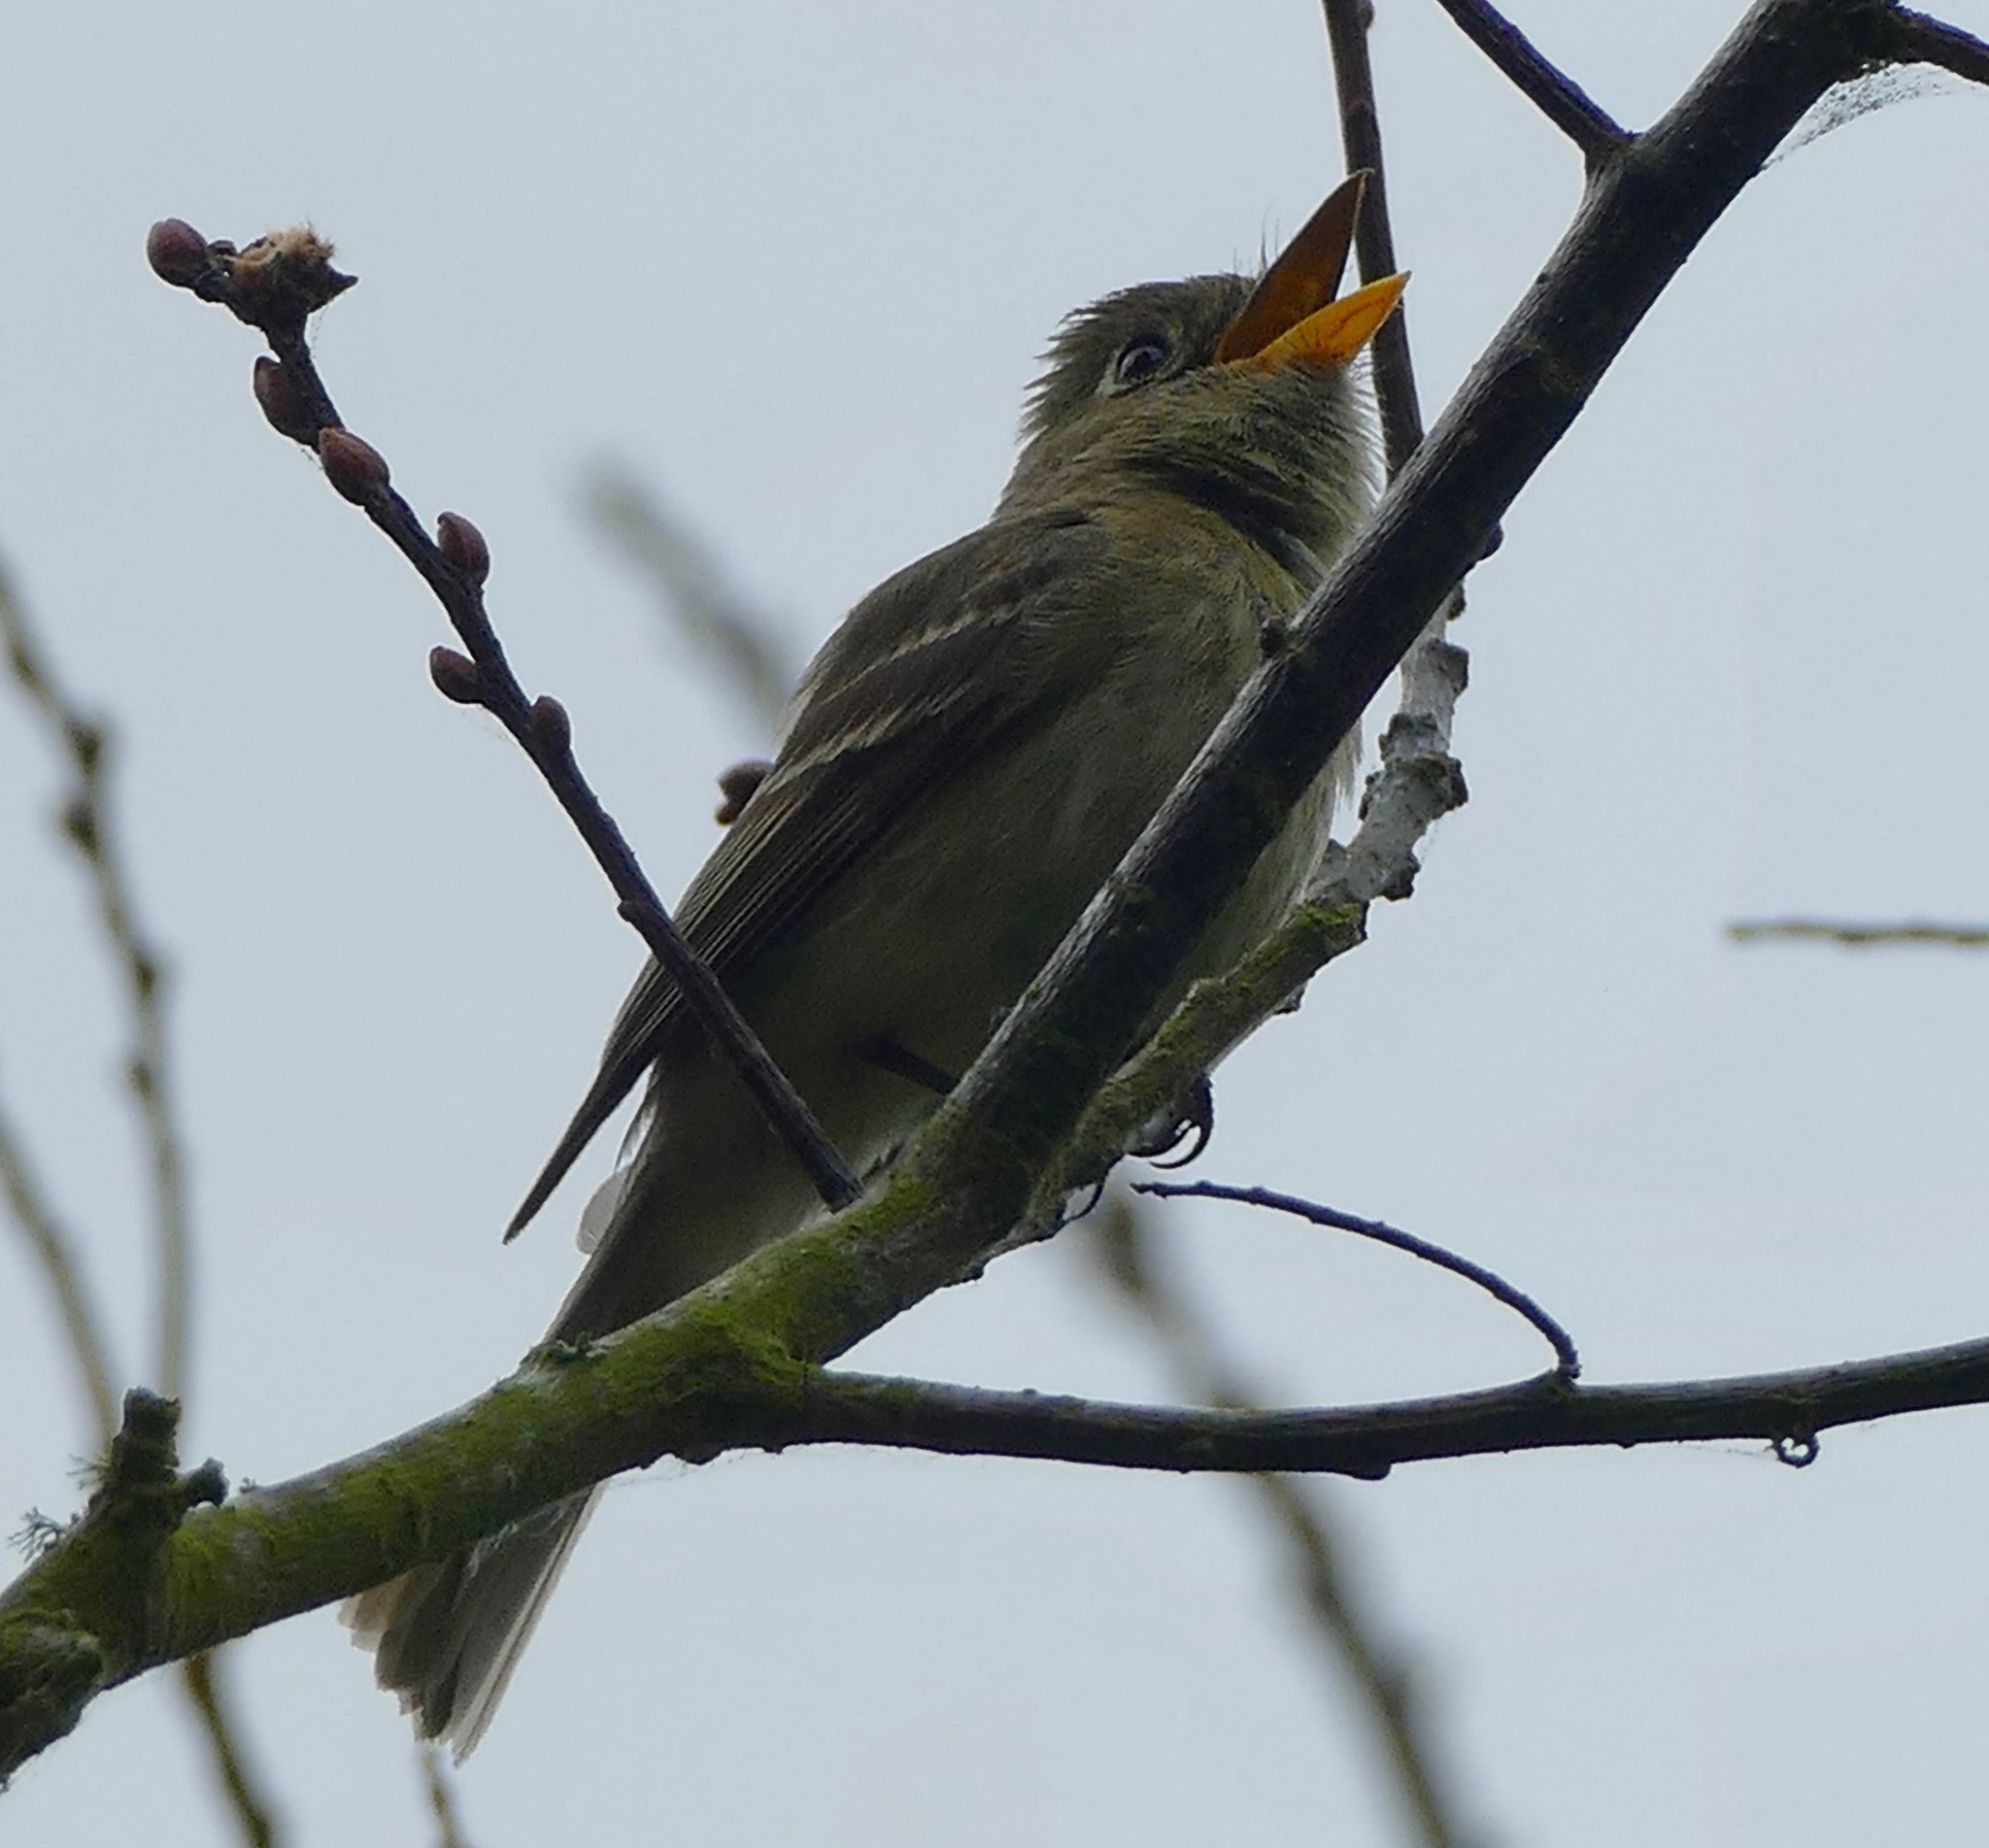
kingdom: Animalia
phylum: Chordata
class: Aves
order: Passeriformes
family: Tyrannidae
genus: Empidonax
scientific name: Empidonax difficilis
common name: Pacific-slope flycatcher
